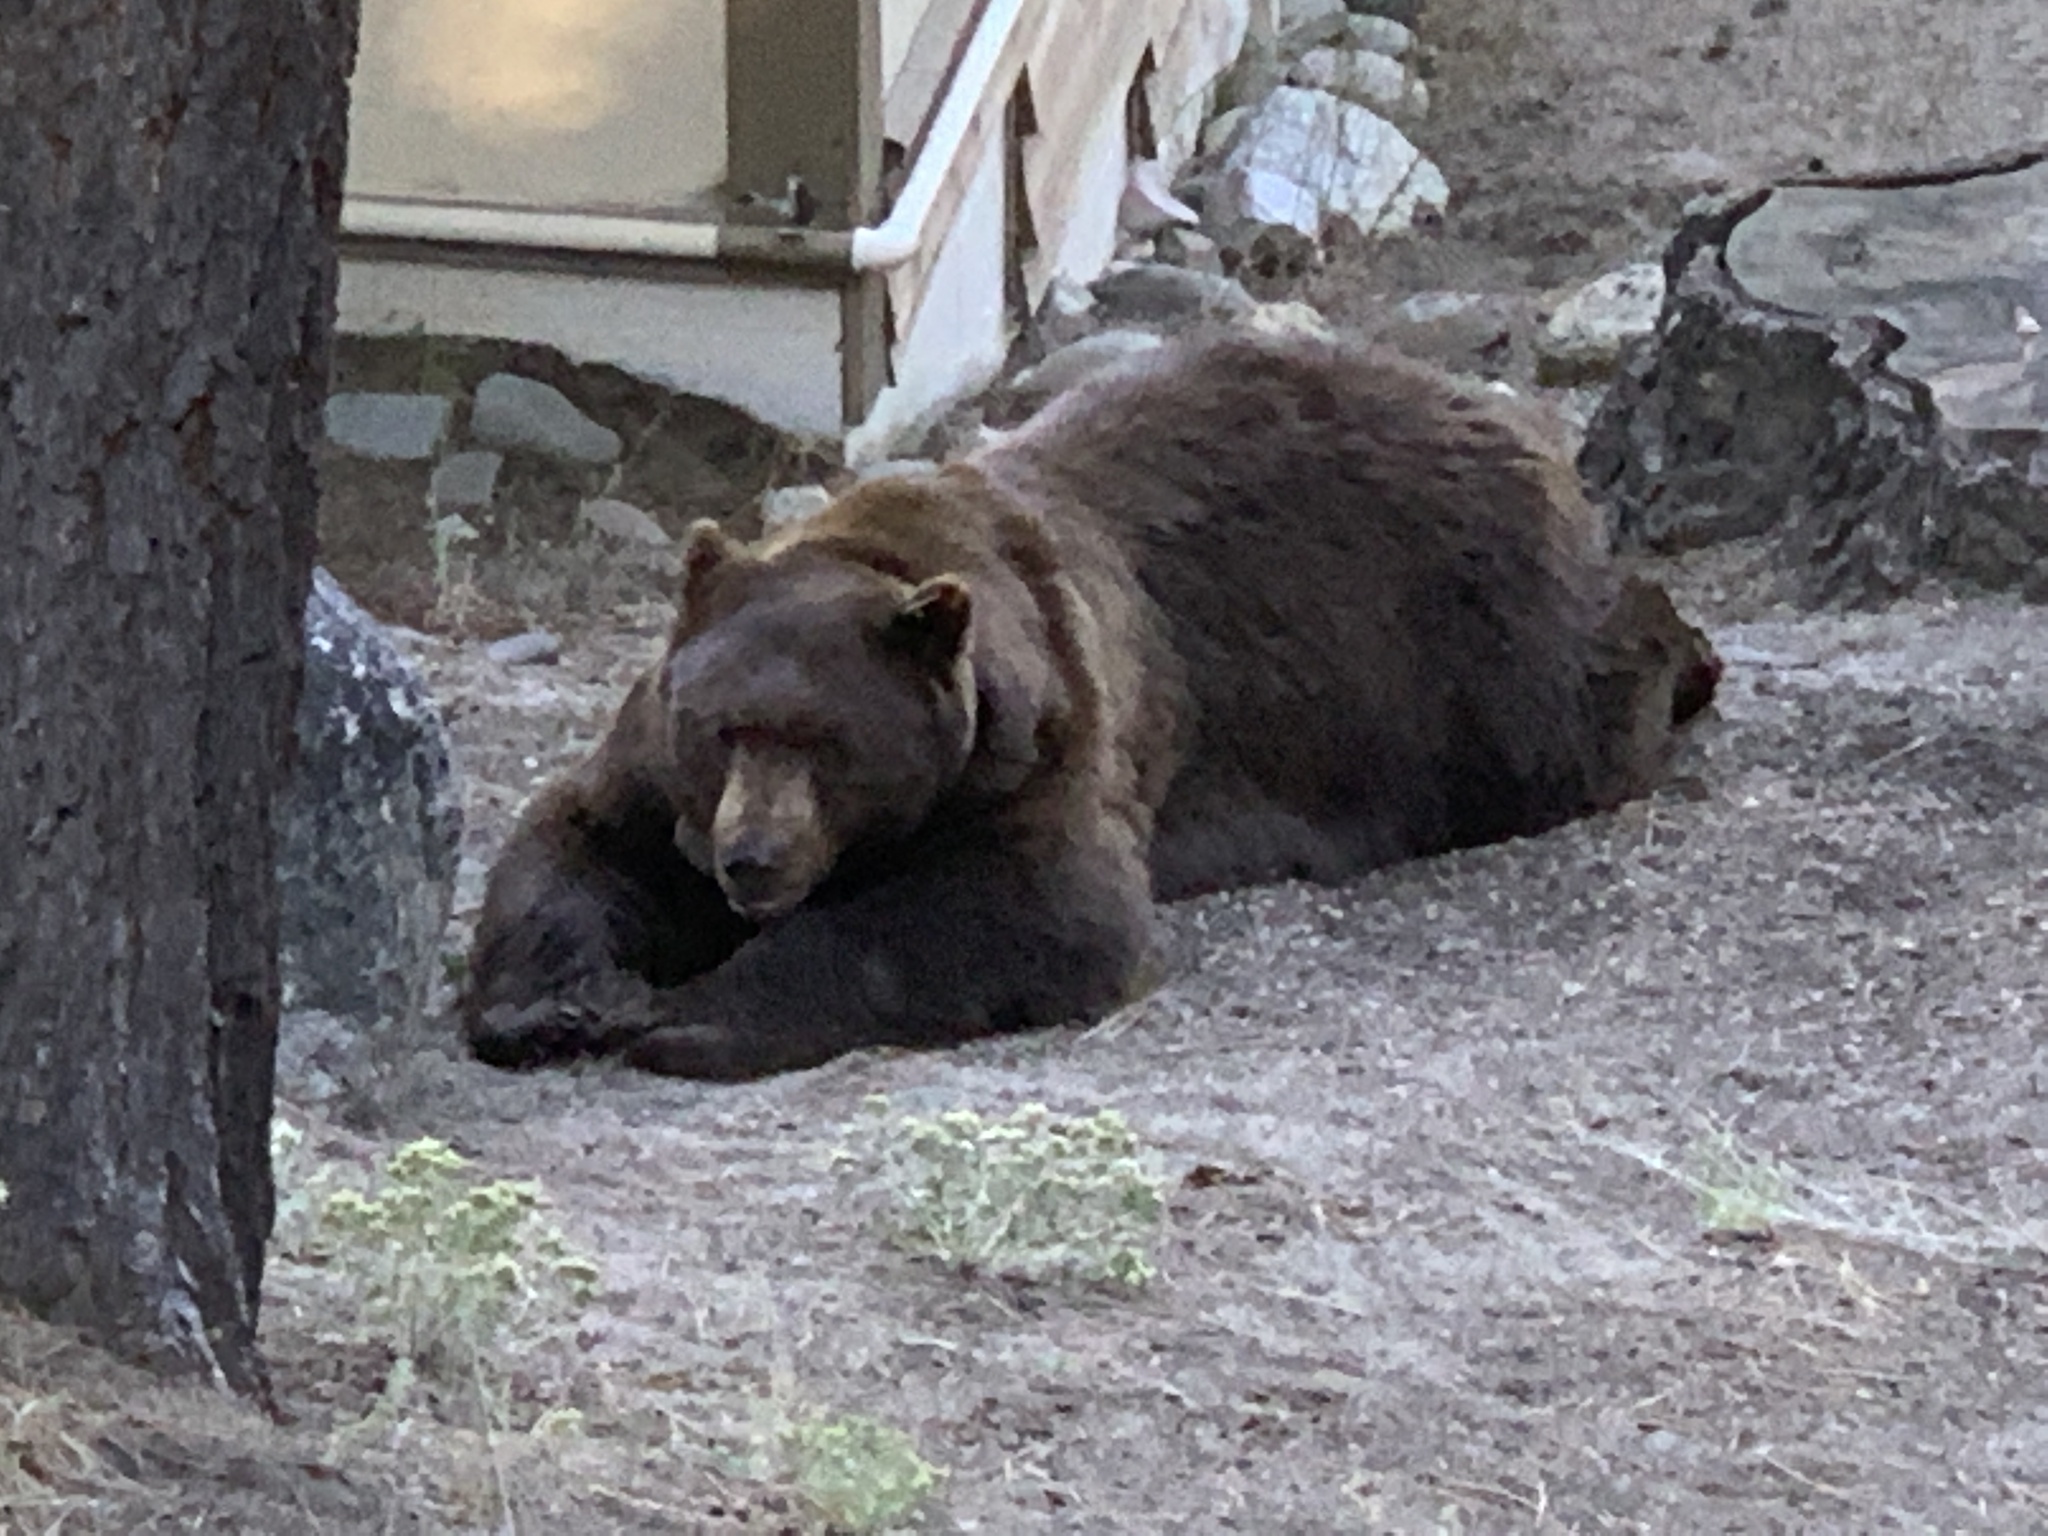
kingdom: Animalia
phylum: Chordata
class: Mammalia
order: Carnivora
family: Ursidae
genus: Ursus
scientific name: Ursus americanus
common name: American black bear
